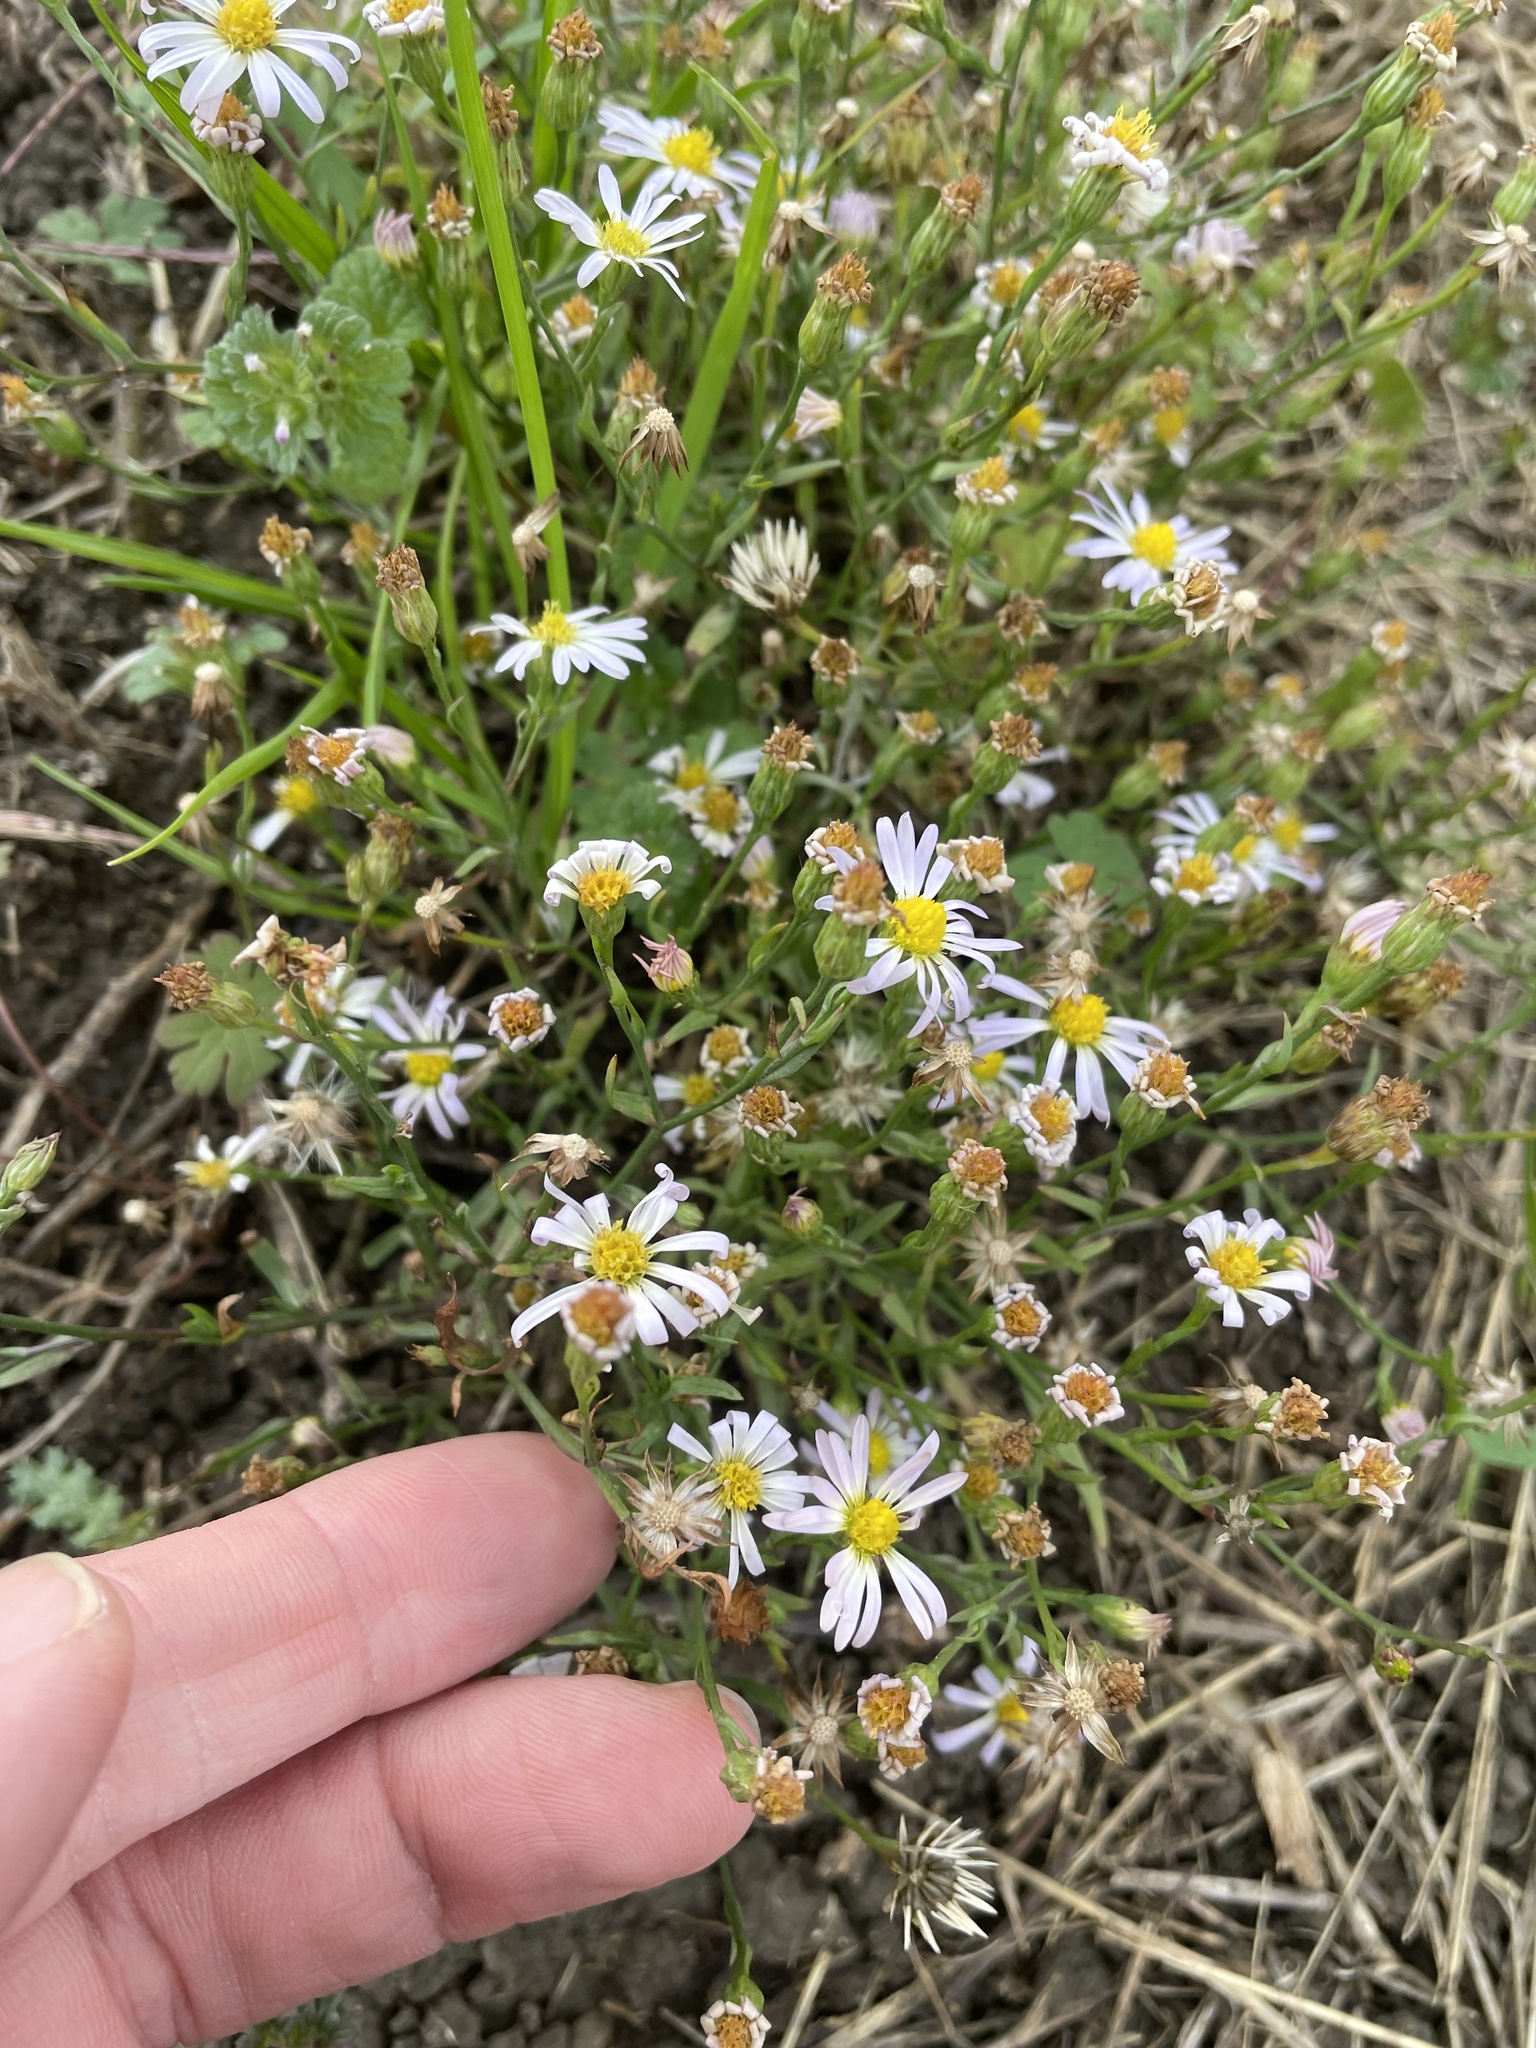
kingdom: Plantae
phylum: Tracheophyta
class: Magnoliopsida
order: Asterales
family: Asteraceae
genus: Symphyotrichum
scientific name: Symphyotrichum divaricatum
